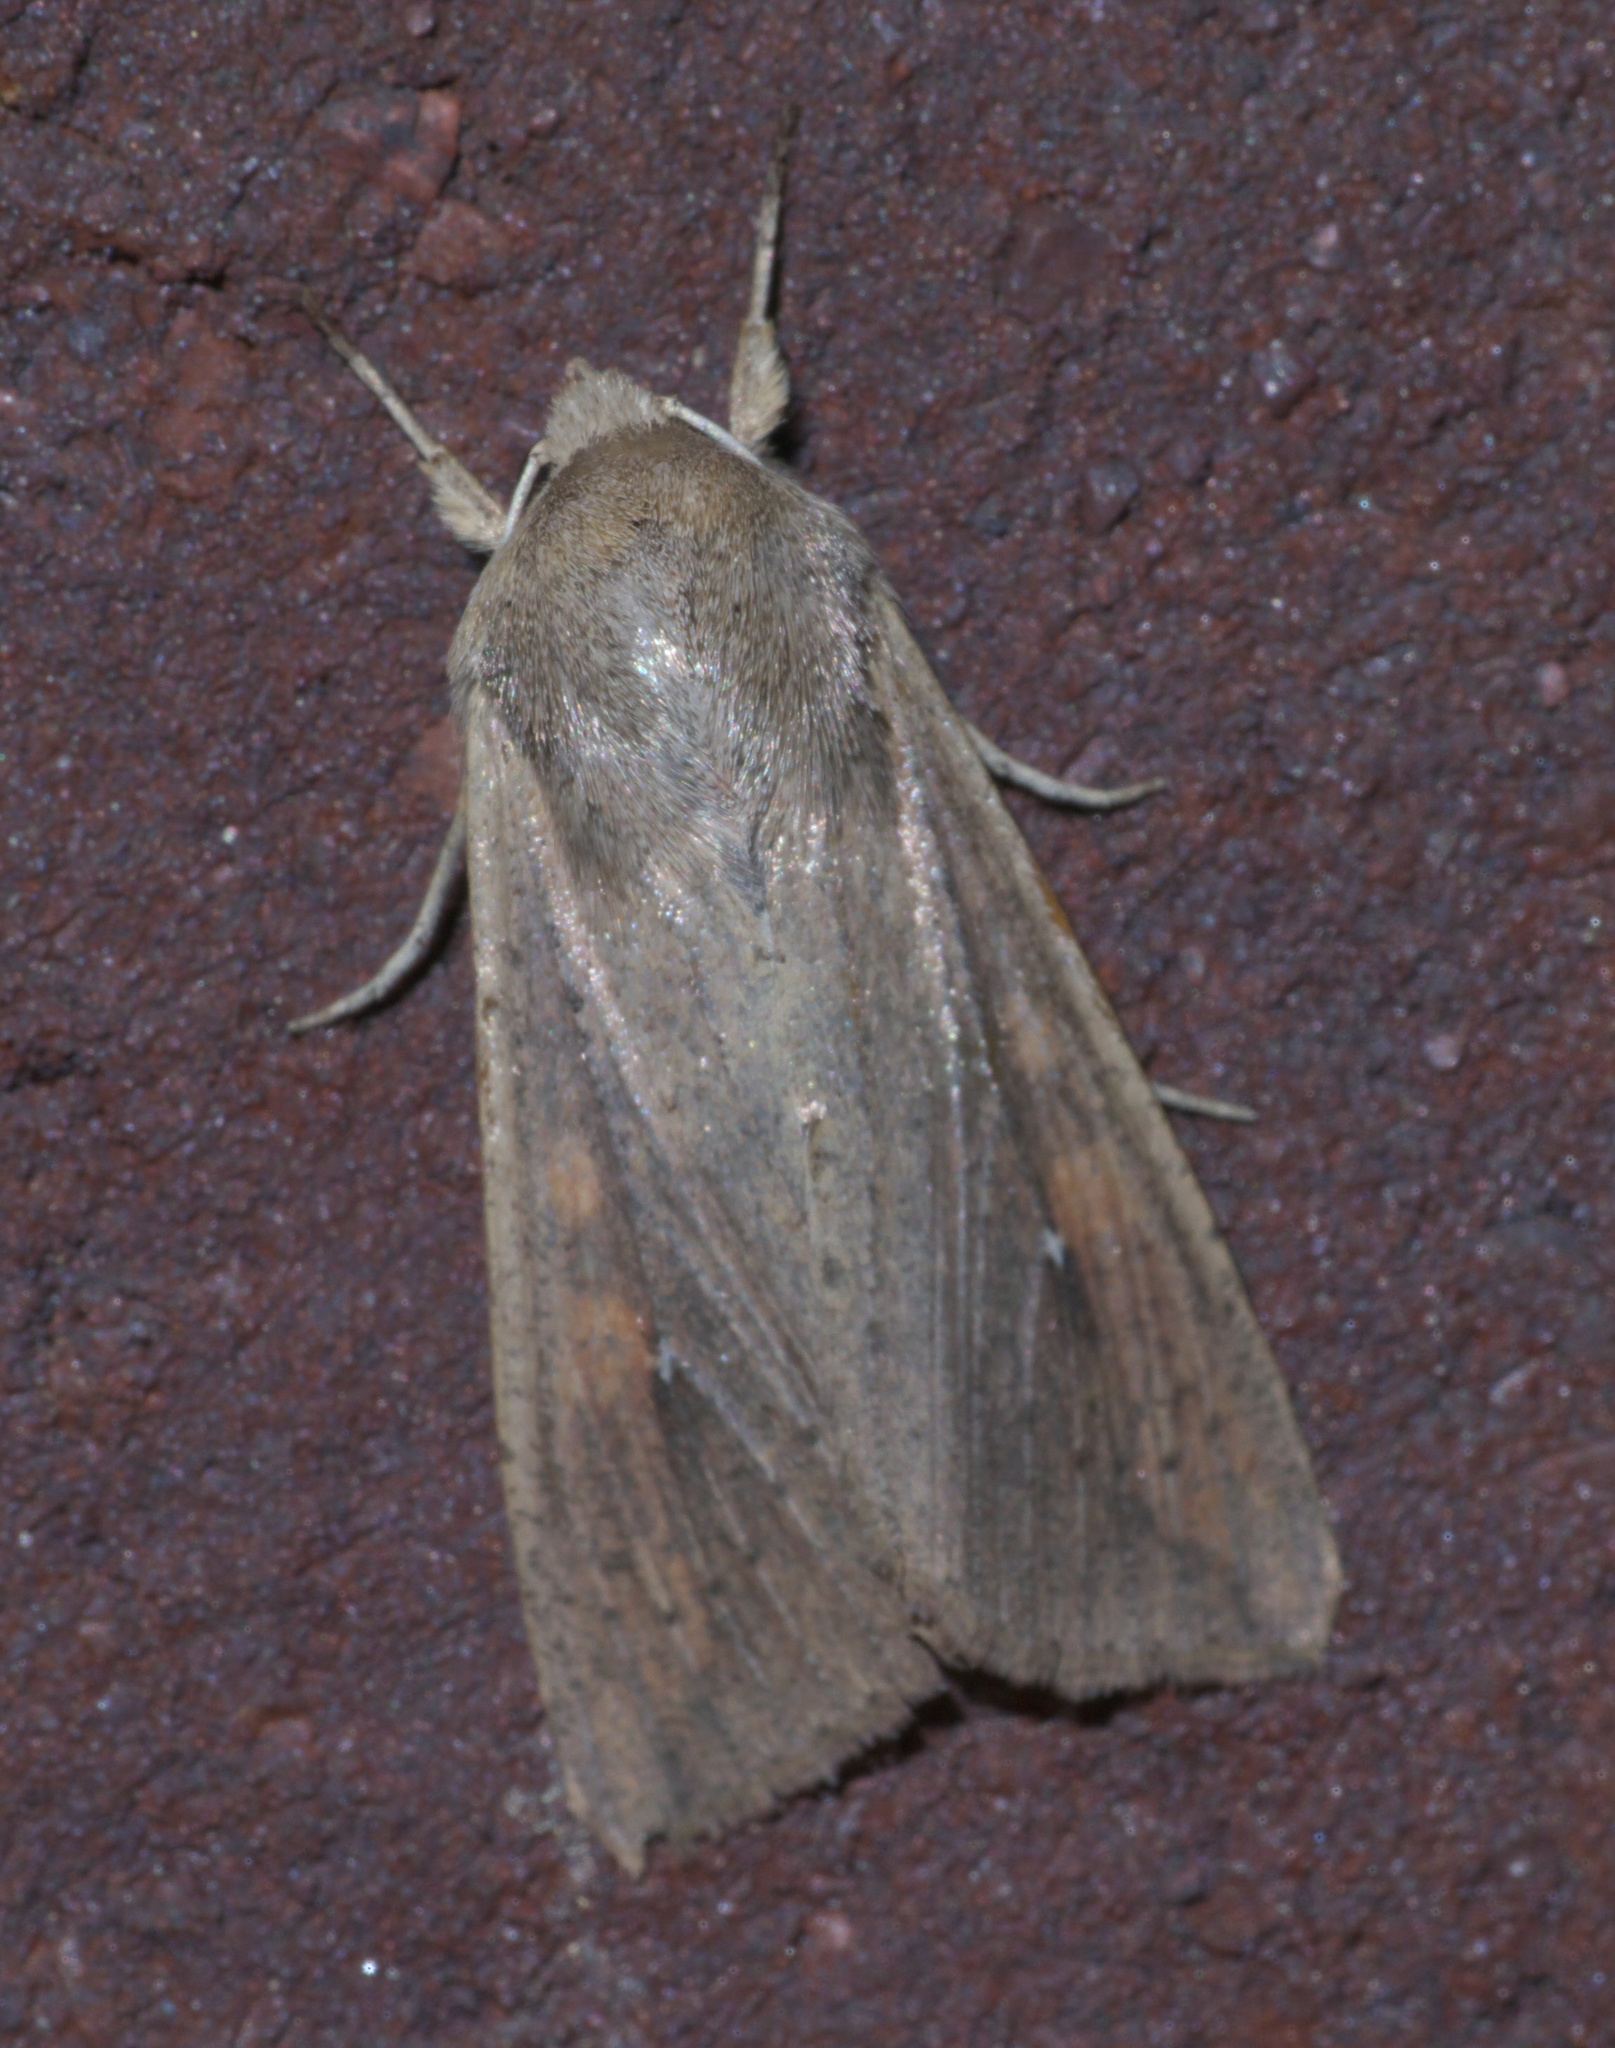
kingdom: Animalia
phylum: Arthropoda
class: Insecta
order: Lepidoptera
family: Noctuidae
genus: Mythimna
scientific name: Mythimna unipuncta
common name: White-speck
